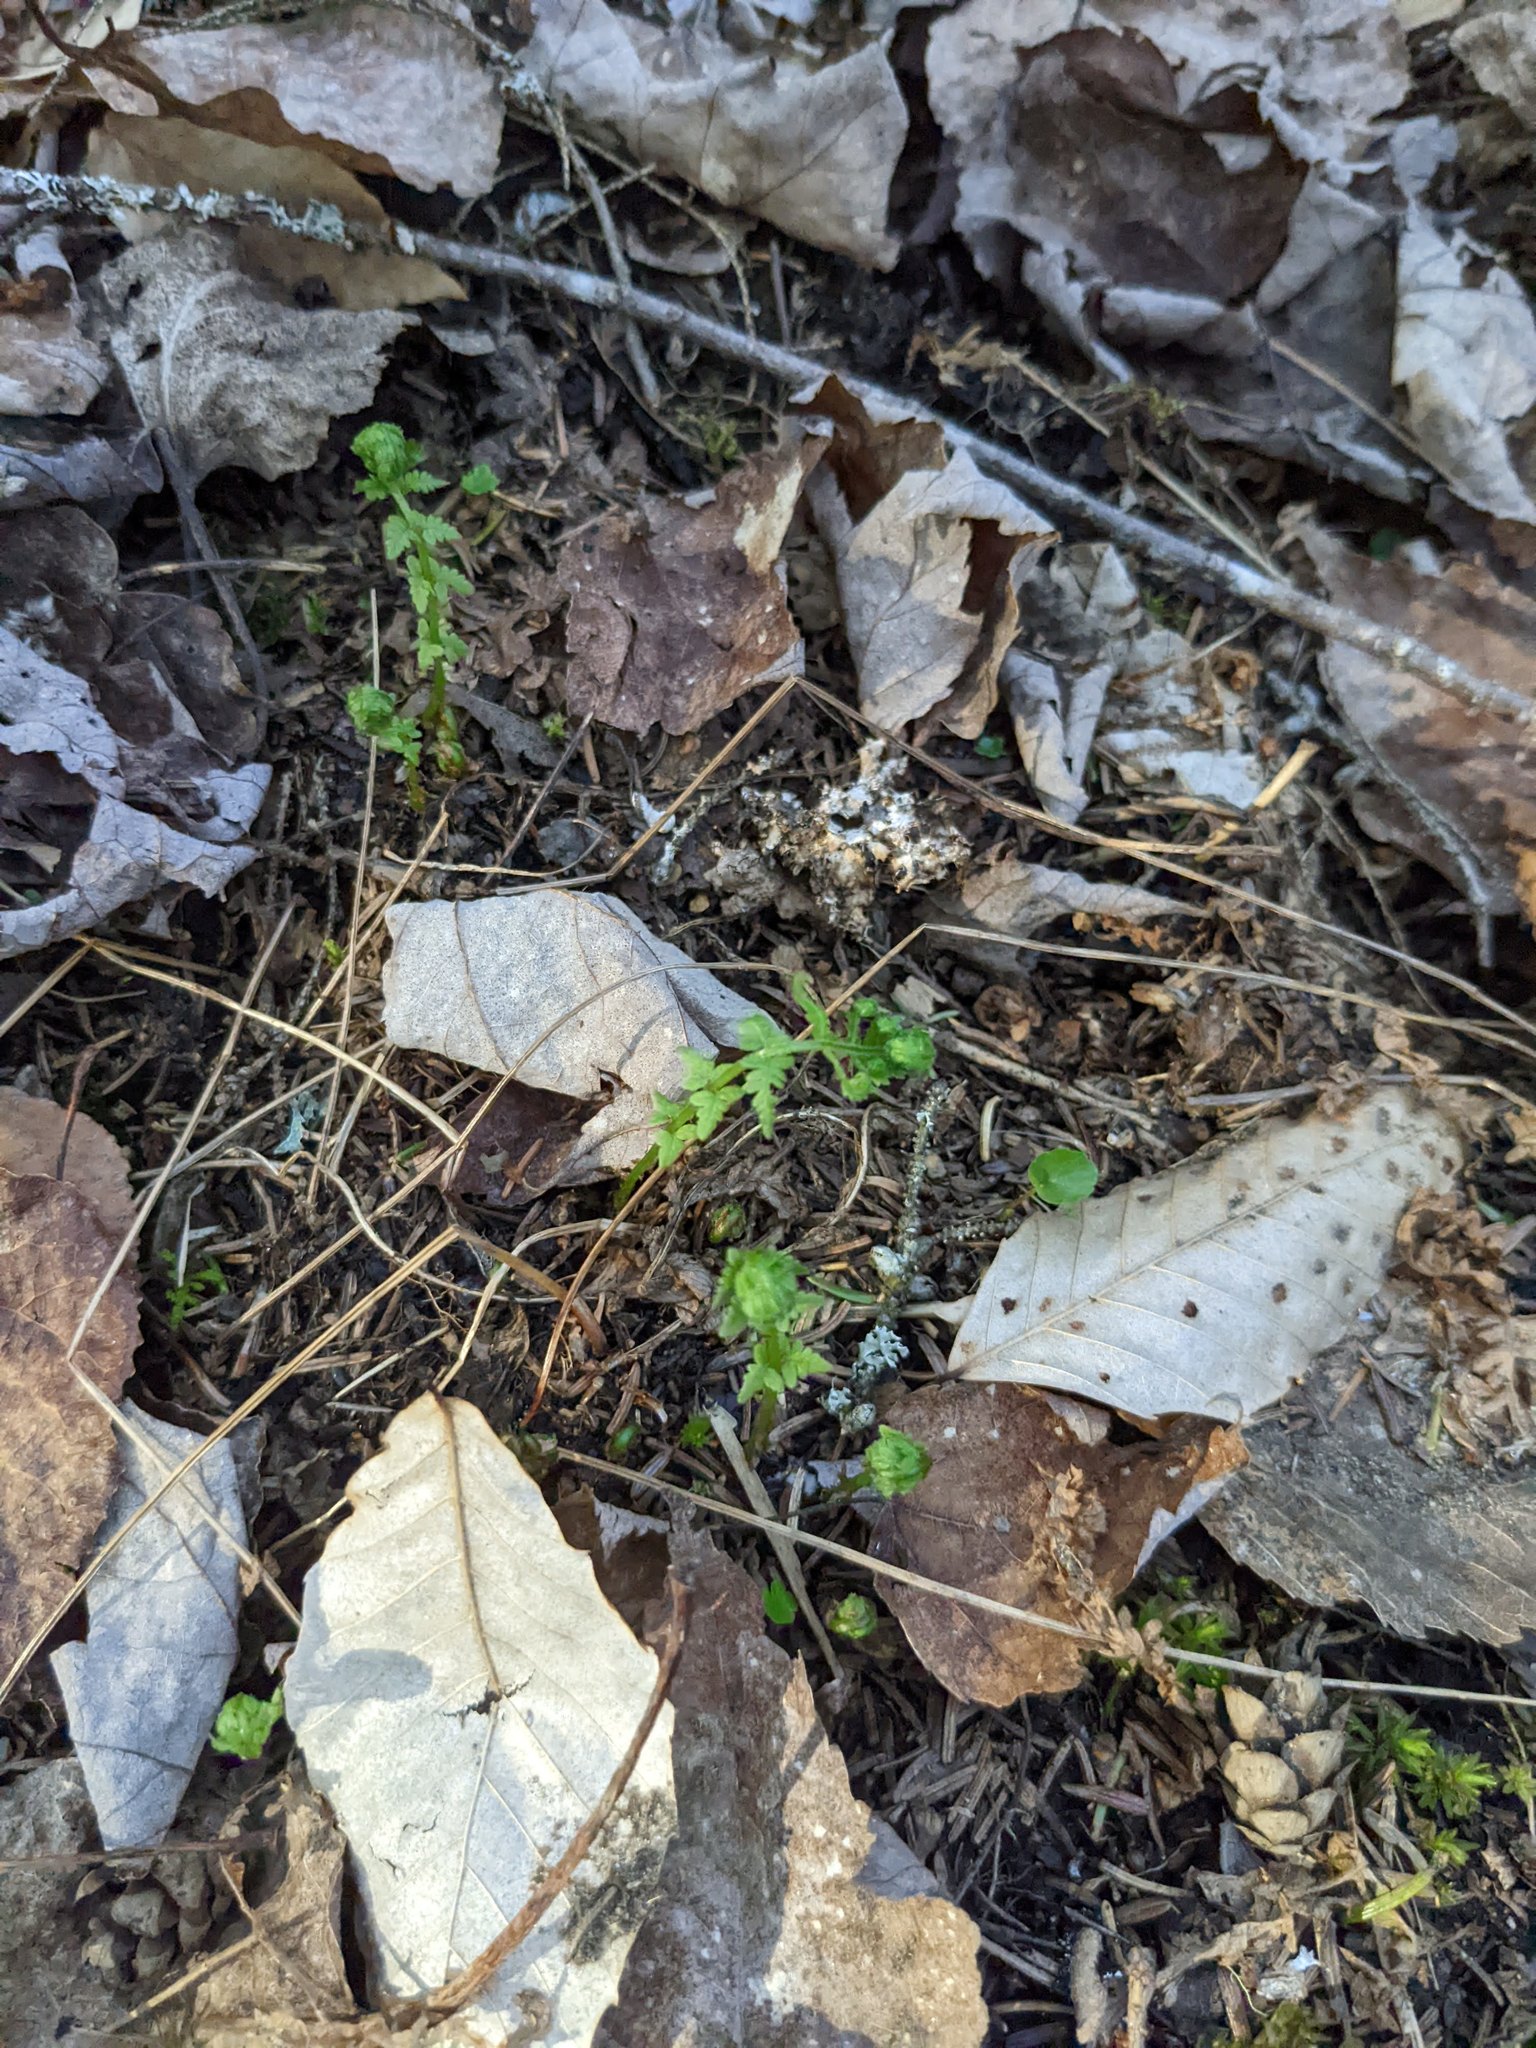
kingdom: Plantae
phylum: Tracheophyta
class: Magnoliopsida
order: Fagales
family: Fagaceae
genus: Fagus
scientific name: Fagus grandifolia
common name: American beech
